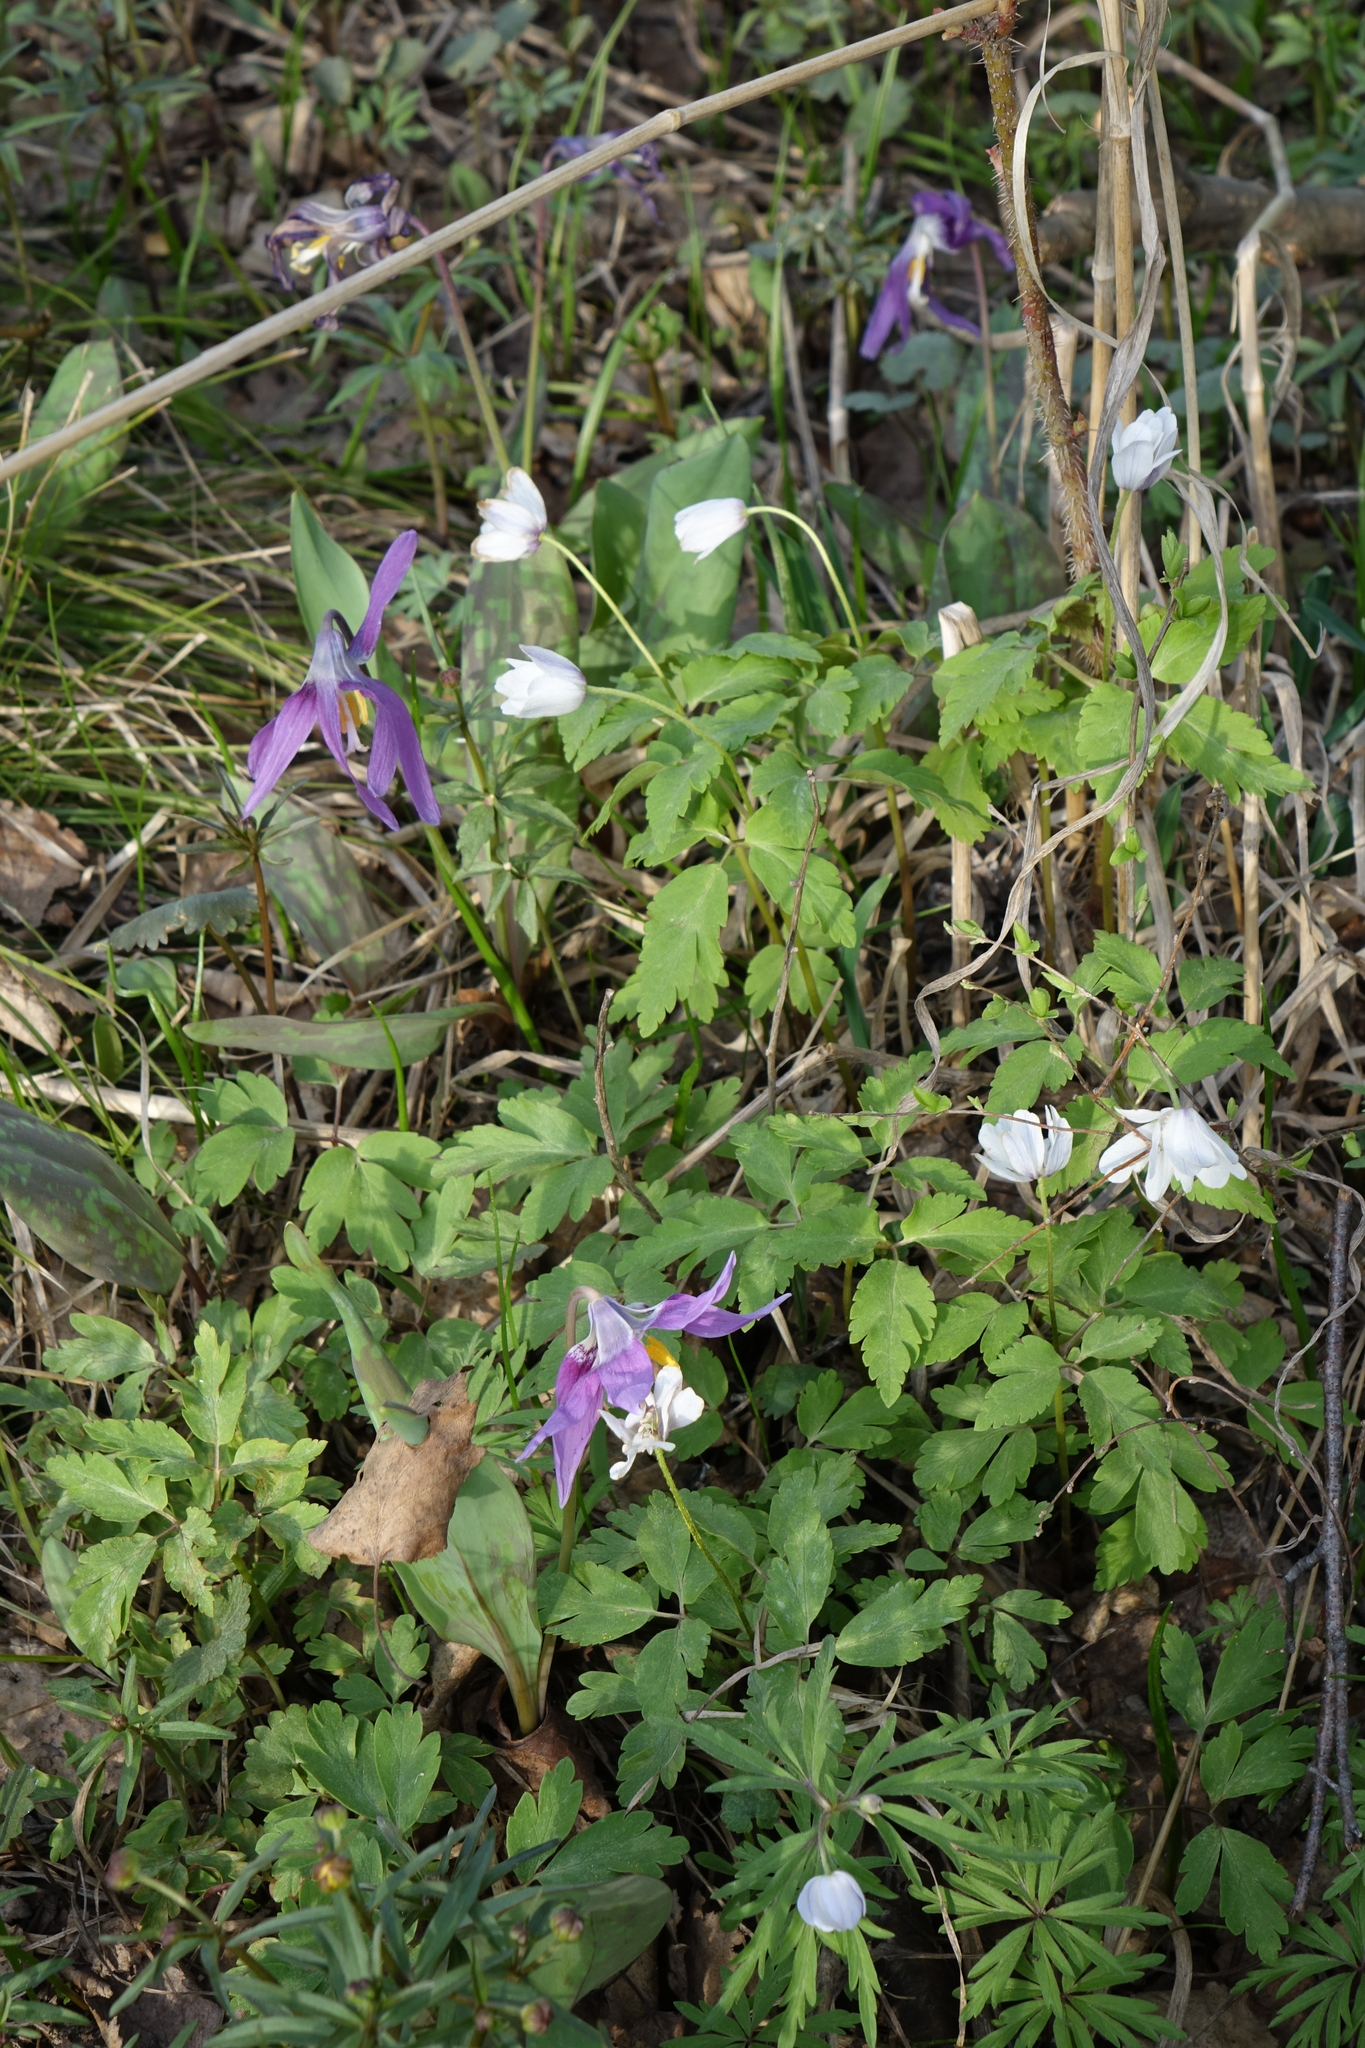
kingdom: Plantae
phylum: Tracheophyta
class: Magnoliopsida
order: Ranunculales
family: Ranunculaceae
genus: Anemone
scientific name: Anemone altaica
